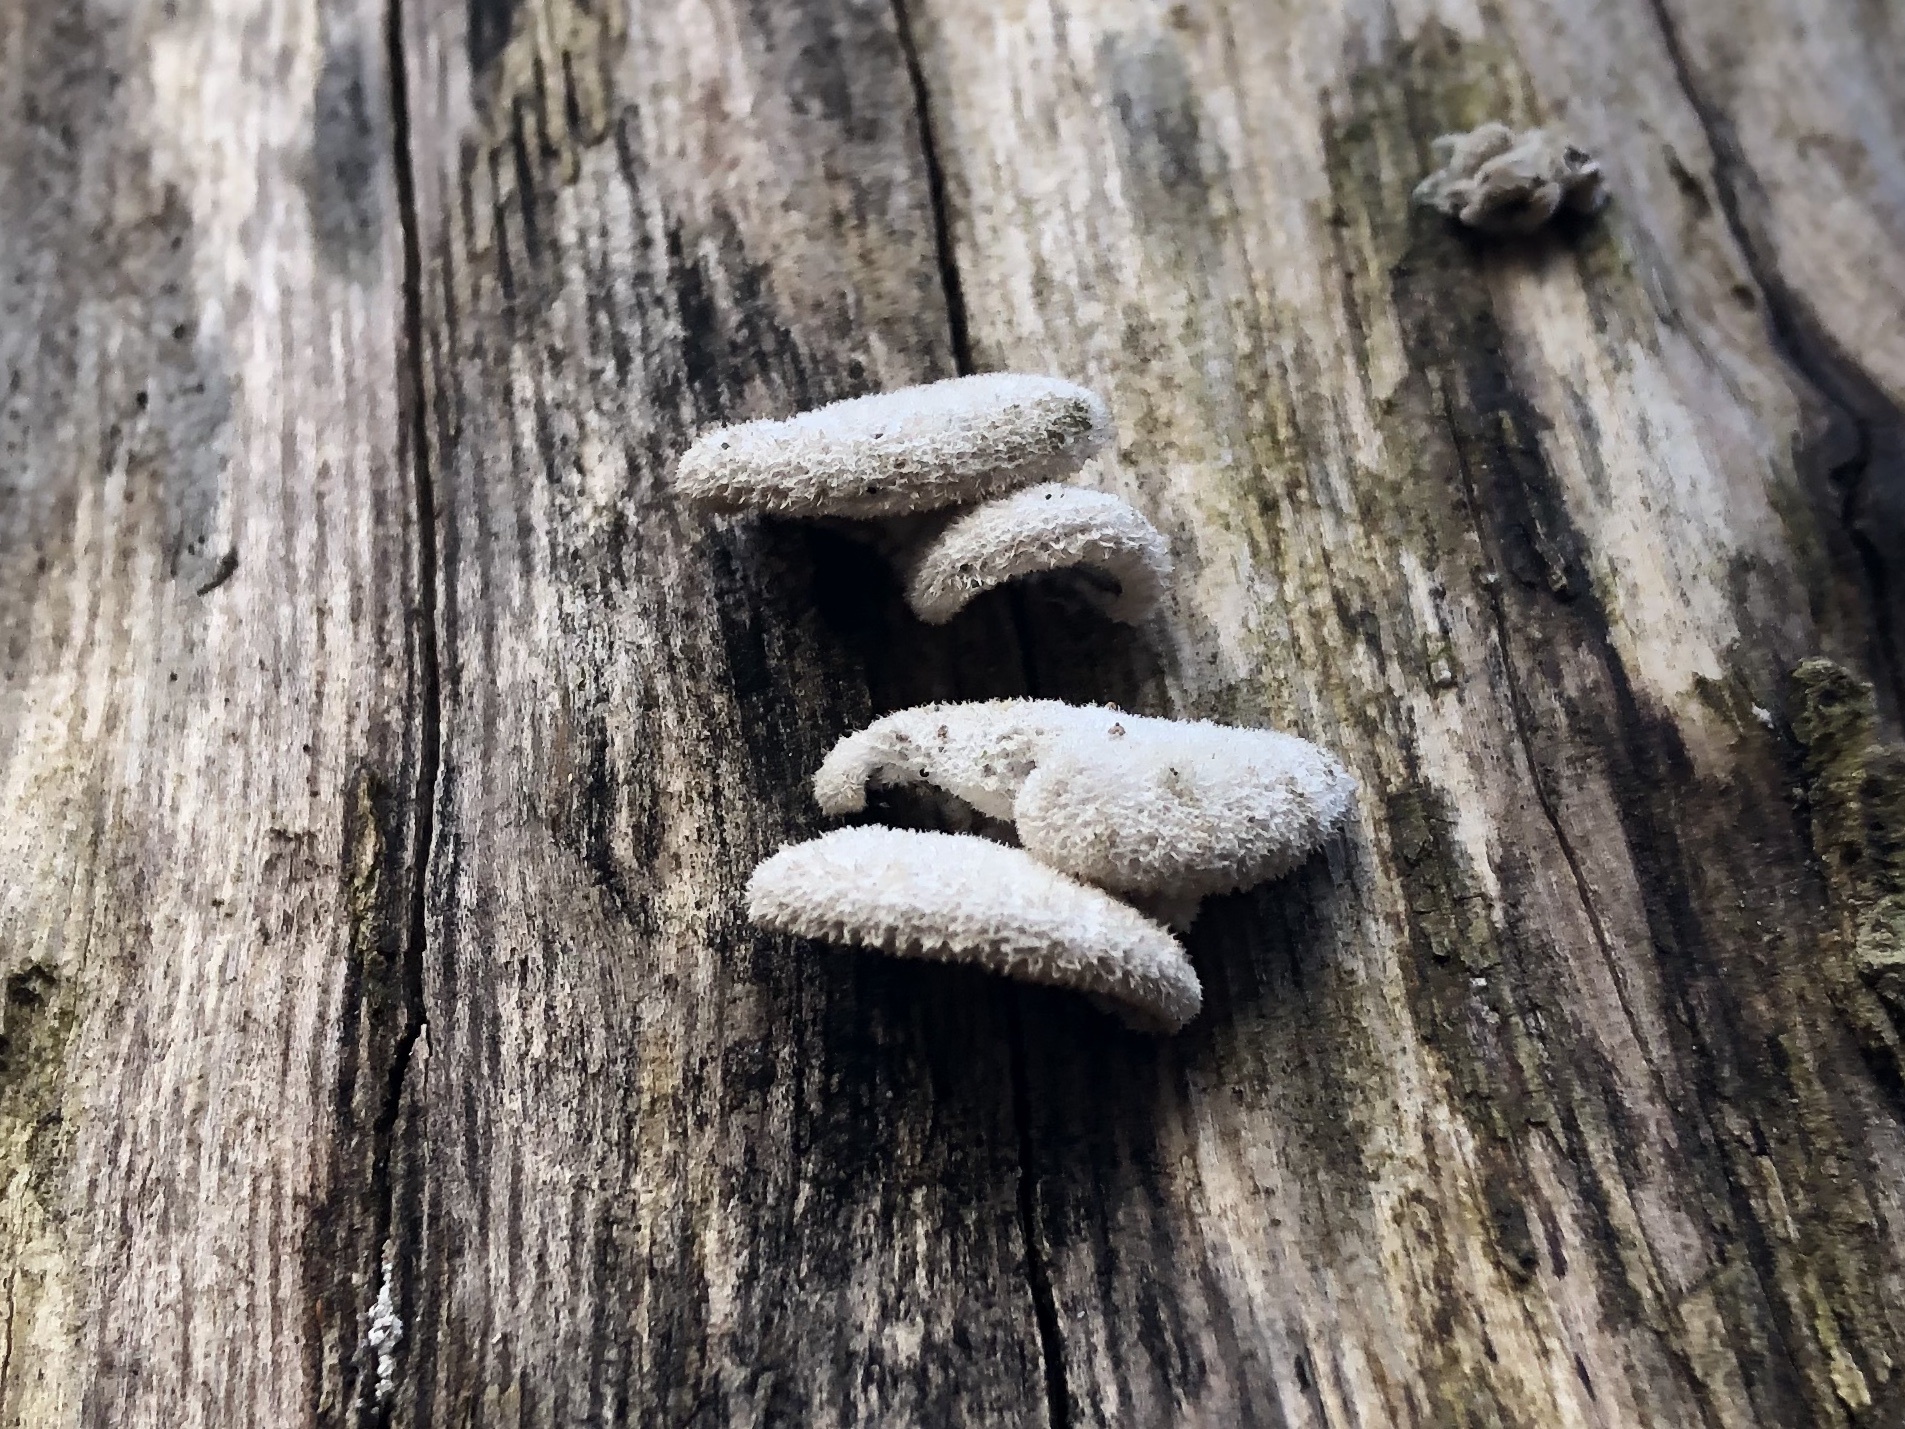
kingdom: Fungi
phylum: Basidiomycota
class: Agaricomycetes
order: Agaricales
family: Schizophyllaceae
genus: Schizophyllum
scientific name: Schizophyllum commune
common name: Common porecrust
